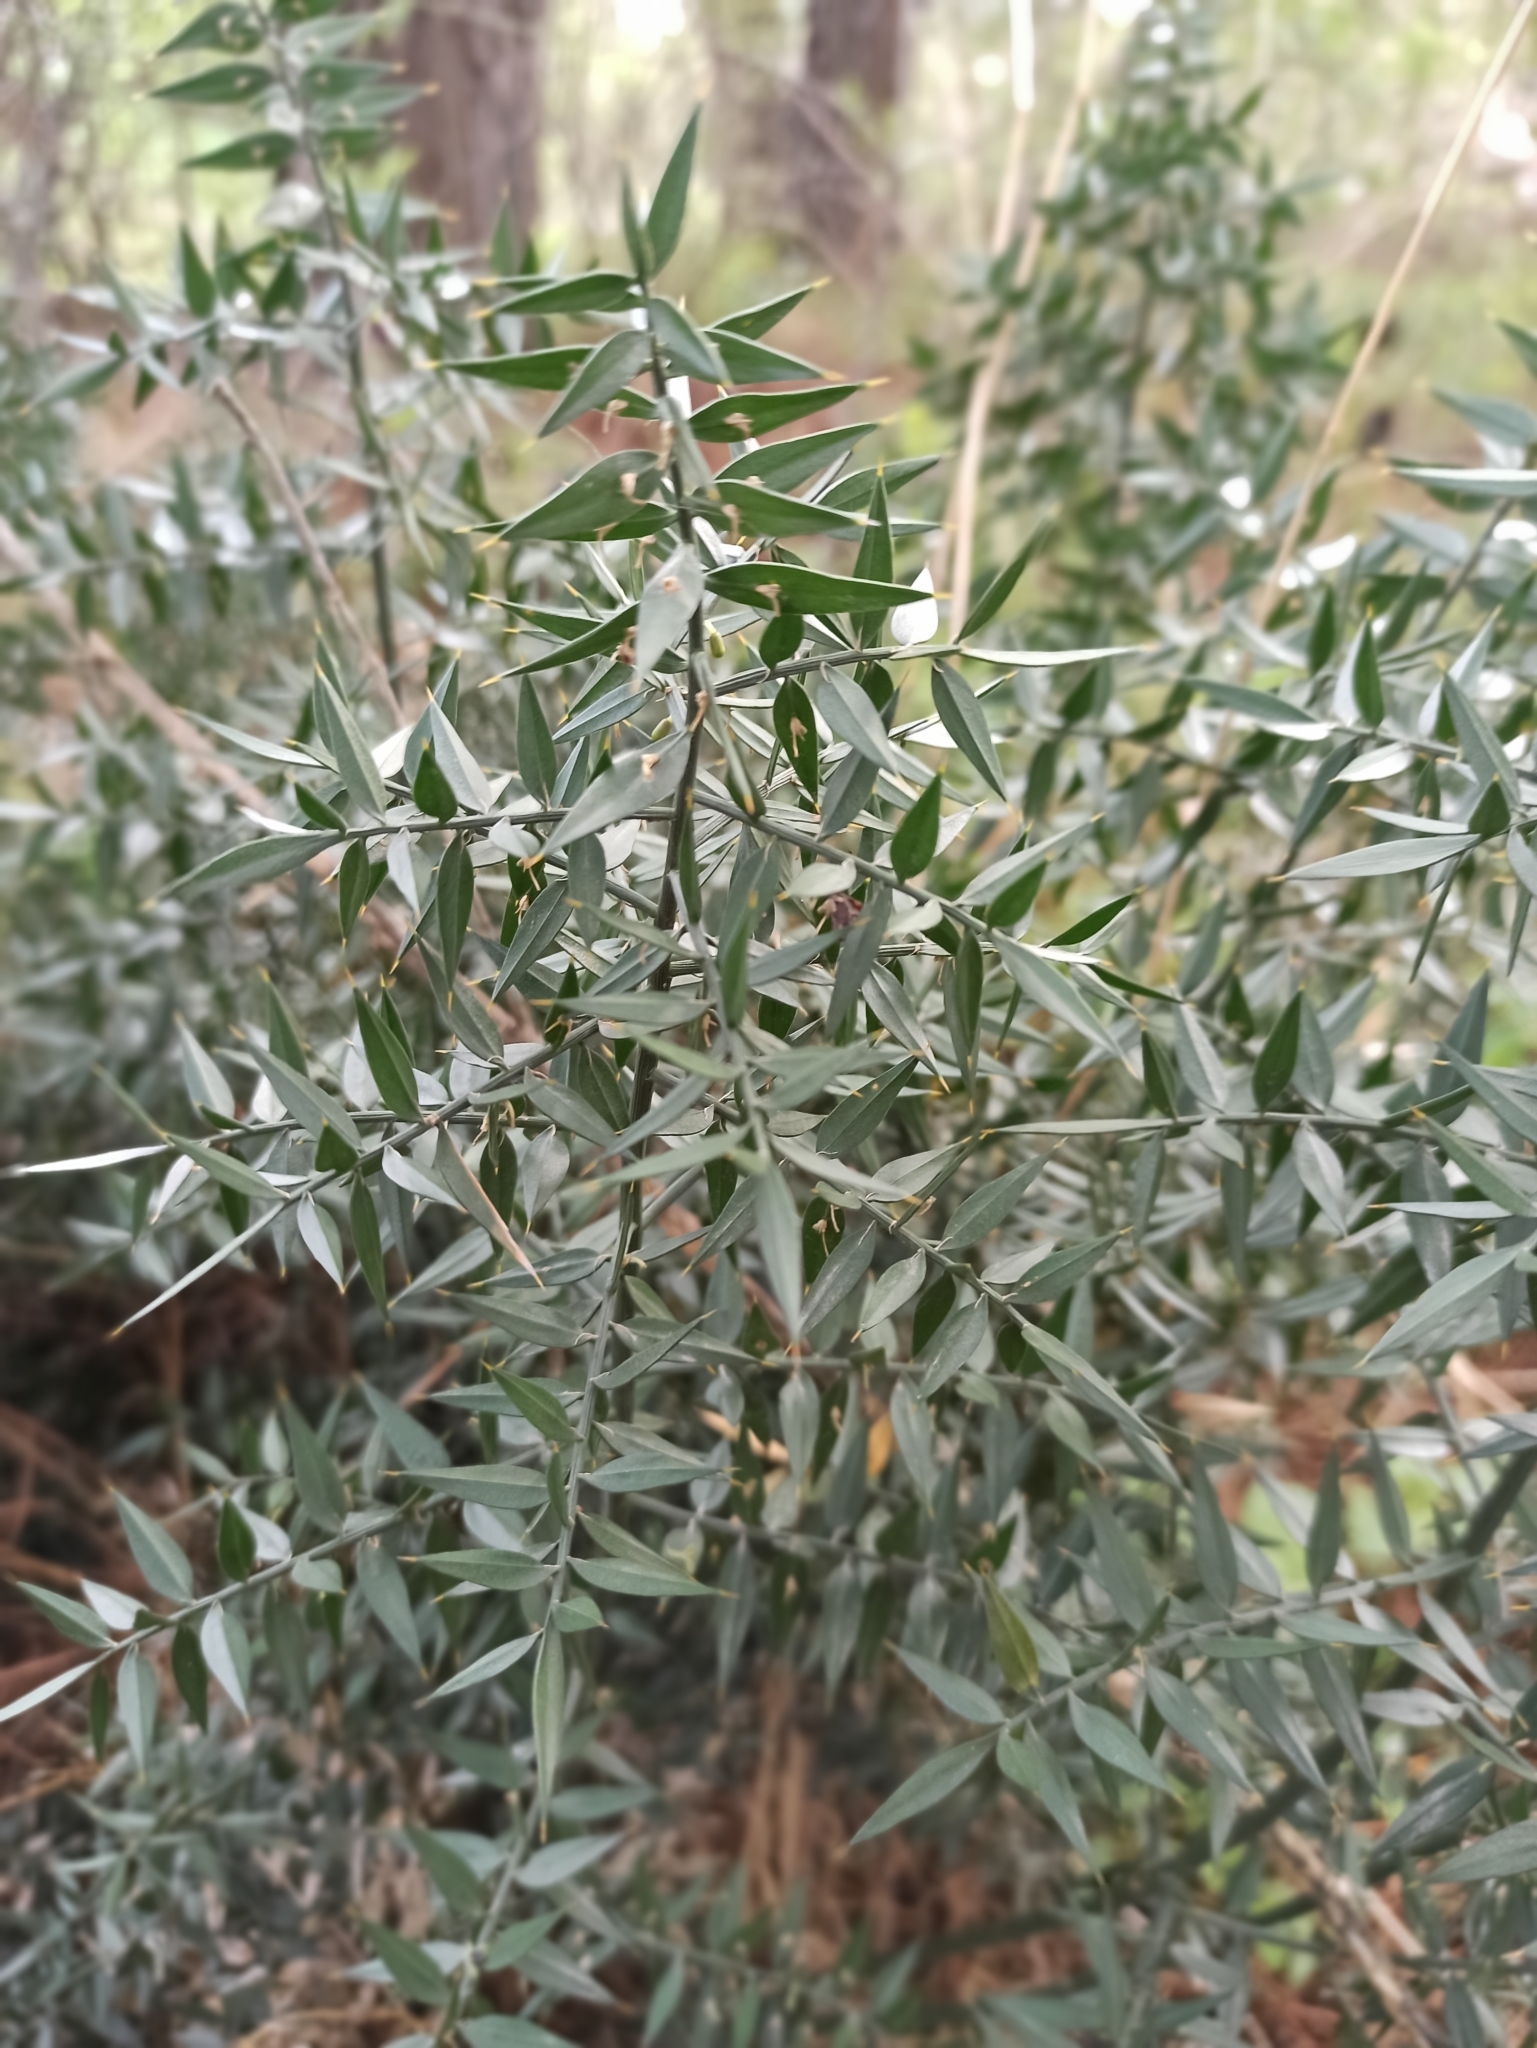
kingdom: Plantae
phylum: Tracheophyta
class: Liliopsida
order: Asparagales
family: Asparagaceae
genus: Ruscus
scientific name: Ruscus aculeatus
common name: Butcher's-broom
